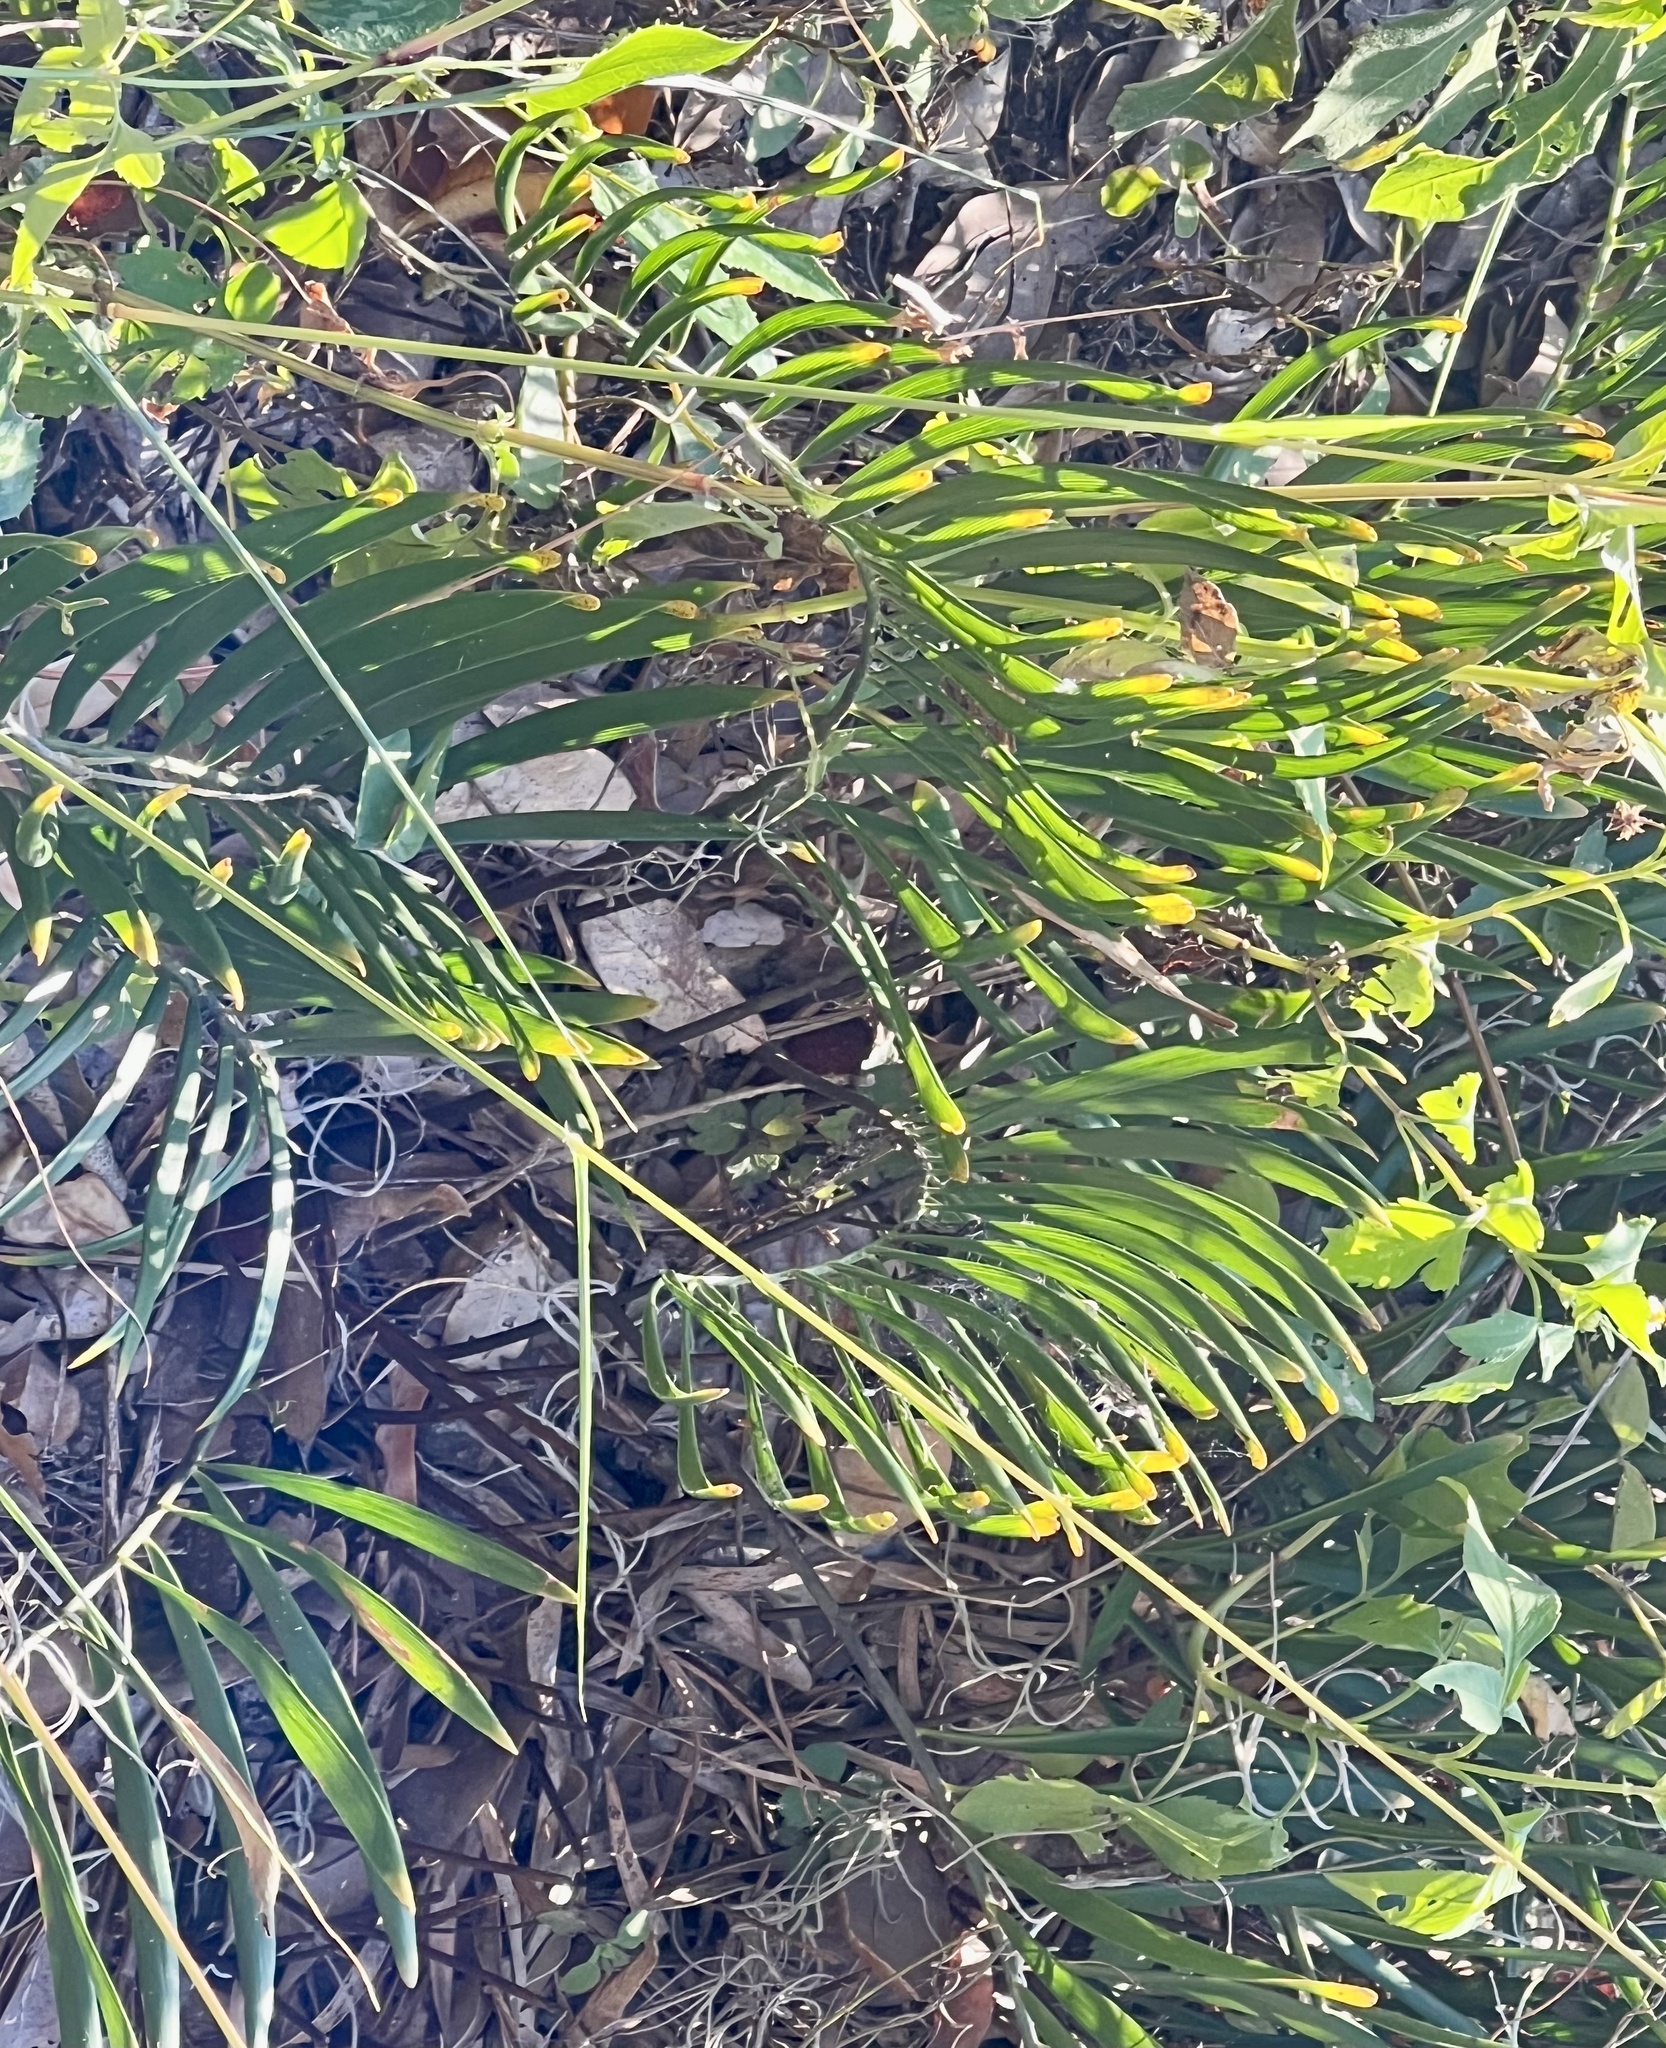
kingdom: Plantae
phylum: Tracheophyta
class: Cycadopsida
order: Cycadales
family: Zamiaceae
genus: Zamia
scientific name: Zamia integrifolia
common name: Florida arrowroot
